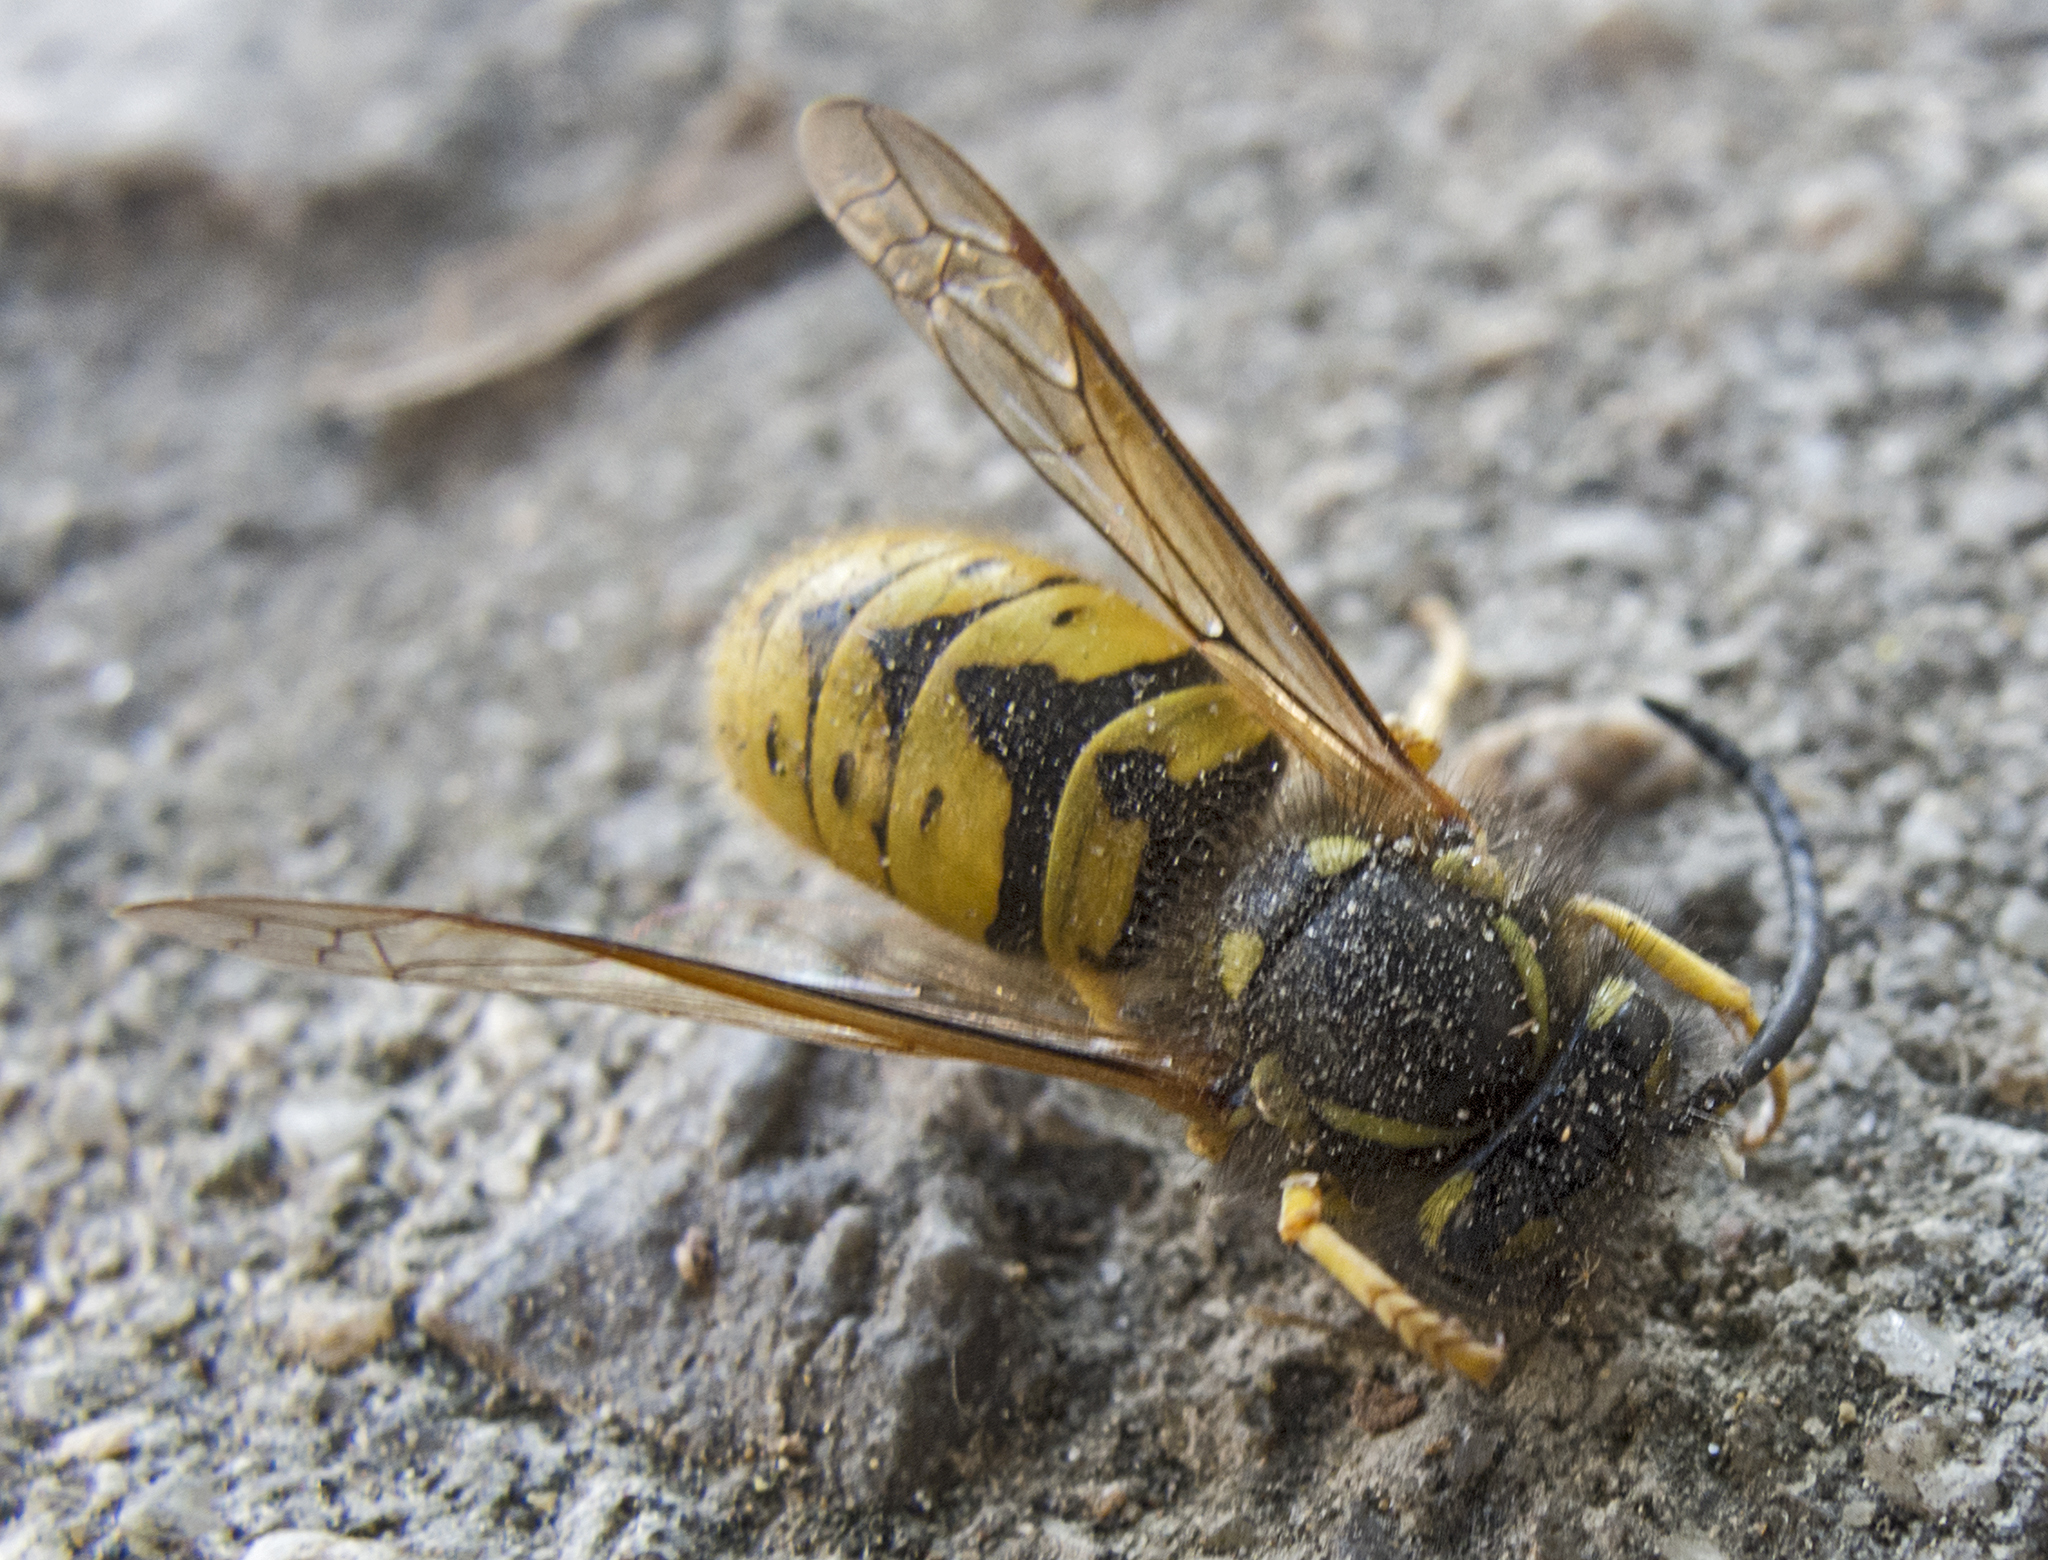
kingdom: Animalia
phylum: Arthropoda
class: Insecta
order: Hymenoptera
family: Vespidae
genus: Vespula
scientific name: Vespula germanica
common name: German wasp
